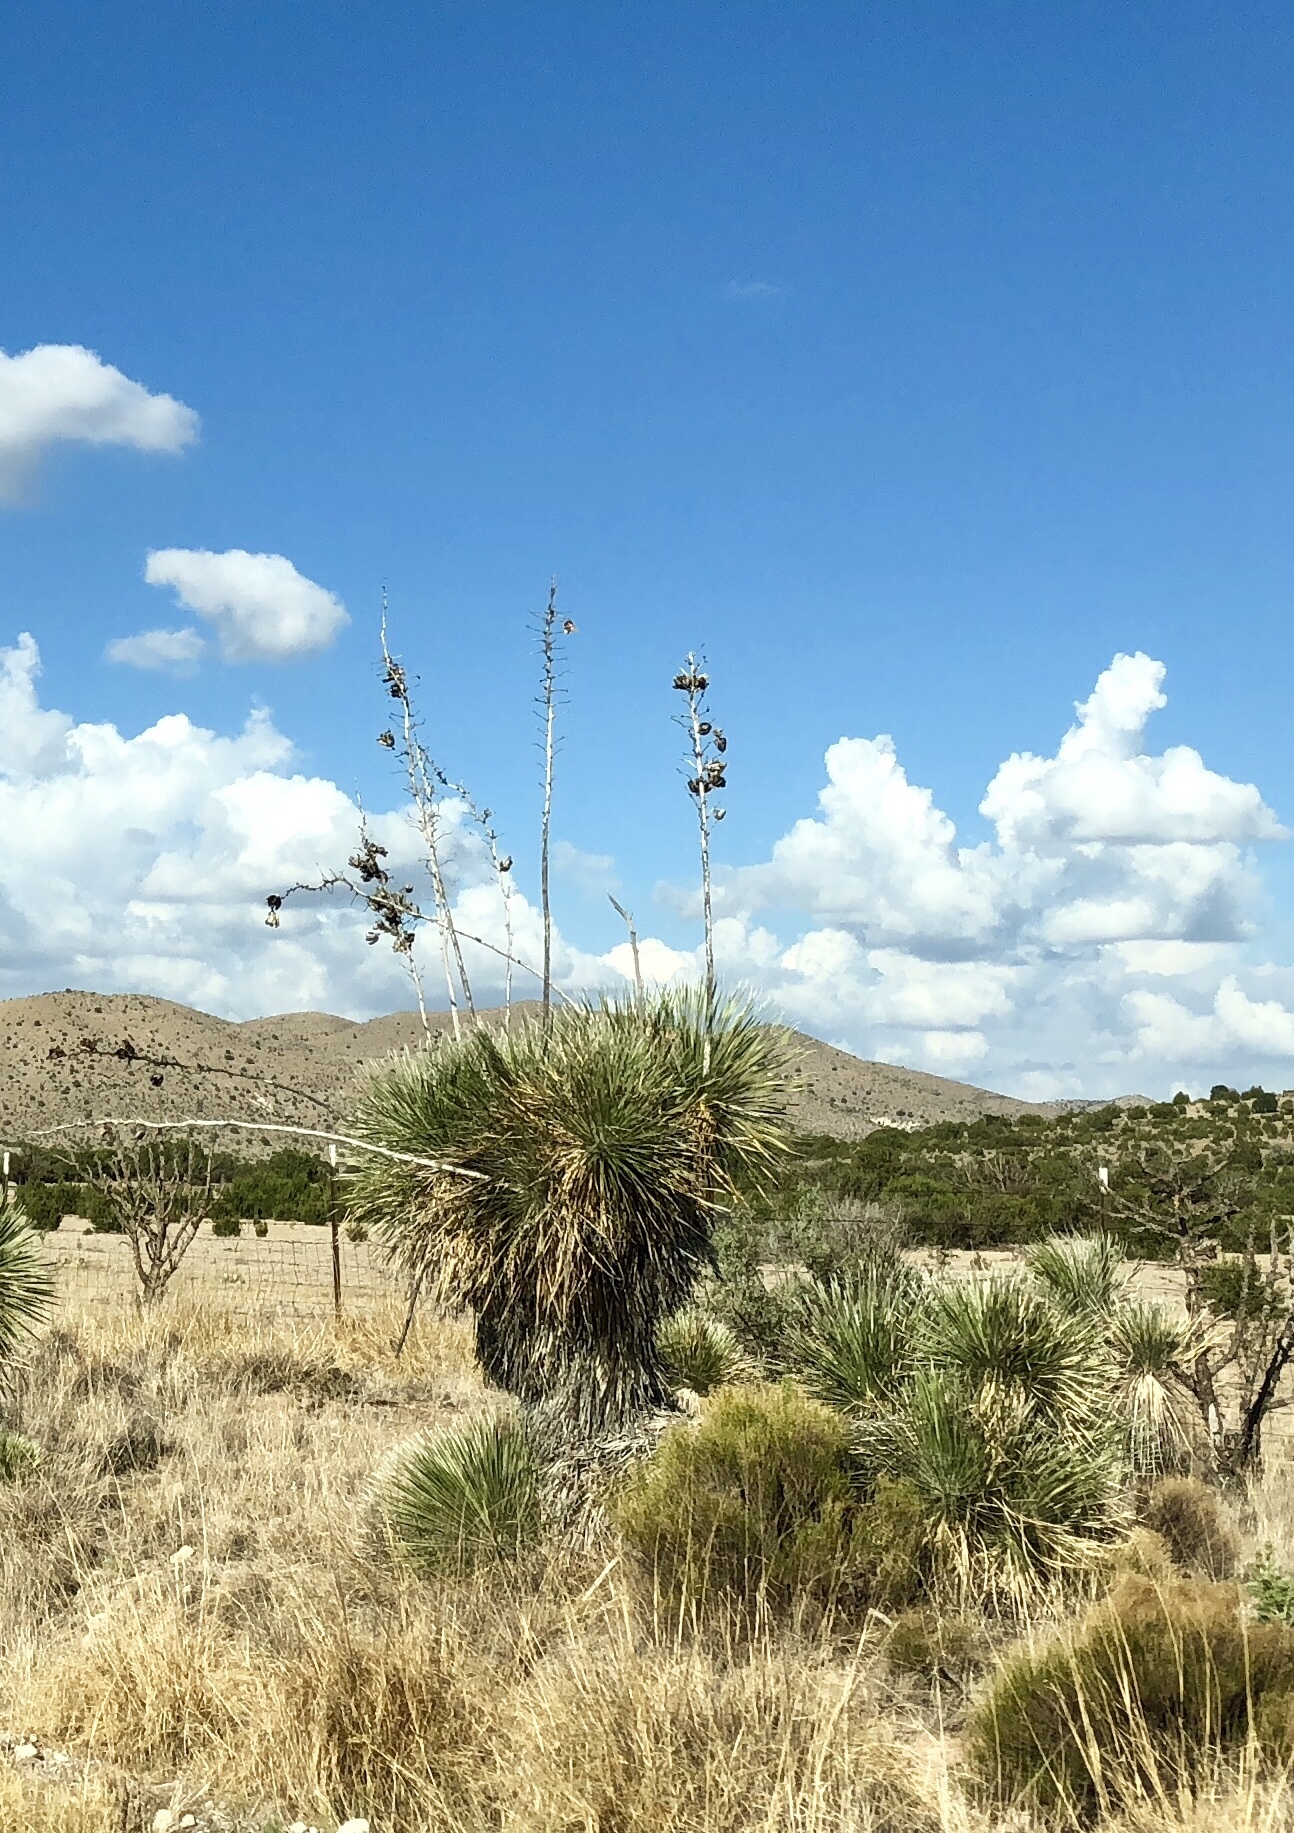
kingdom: Plantae
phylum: Tracheophyta
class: Liliopsida
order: Asparagales
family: Asparagaceae
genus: Yucca
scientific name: Yucca elata
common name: Palmella
